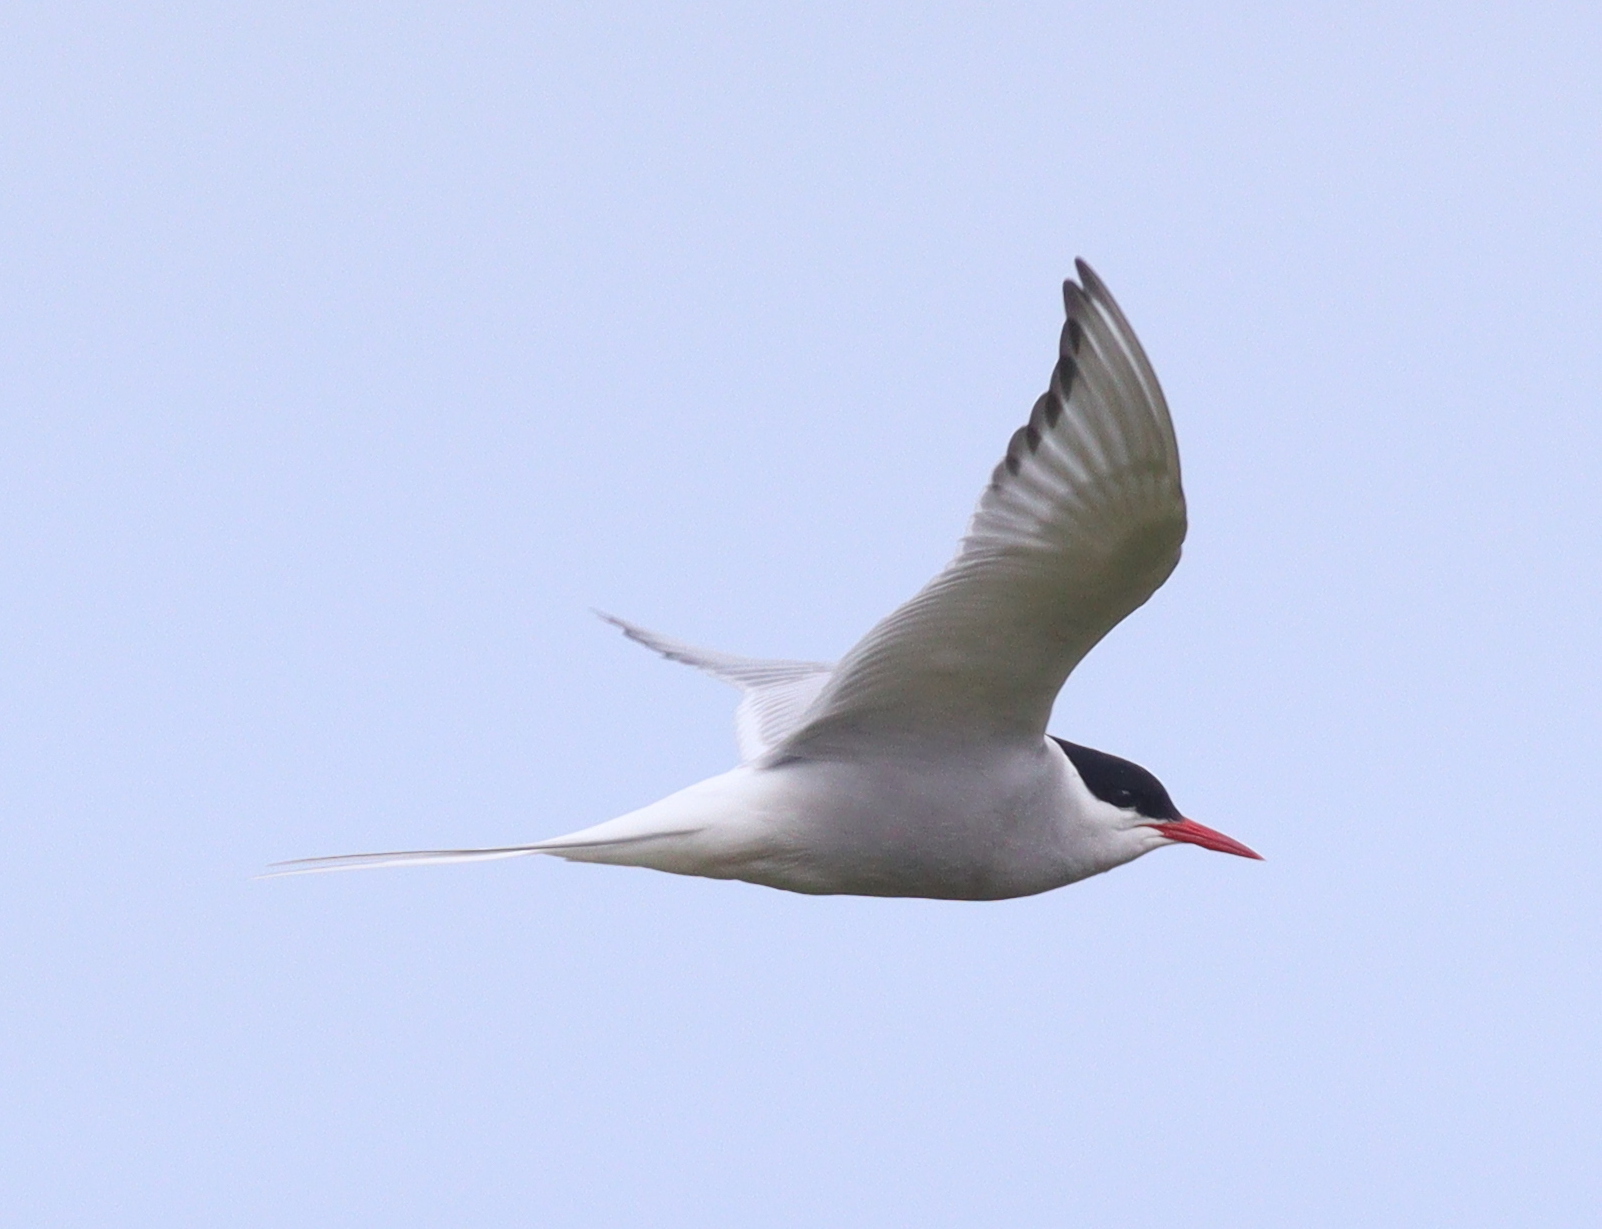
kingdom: Animalia
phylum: Chordata
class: Aves
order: Charadriiformes
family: Laridae
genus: Sterna
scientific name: Sterna paradisaea
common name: Arctic tern
